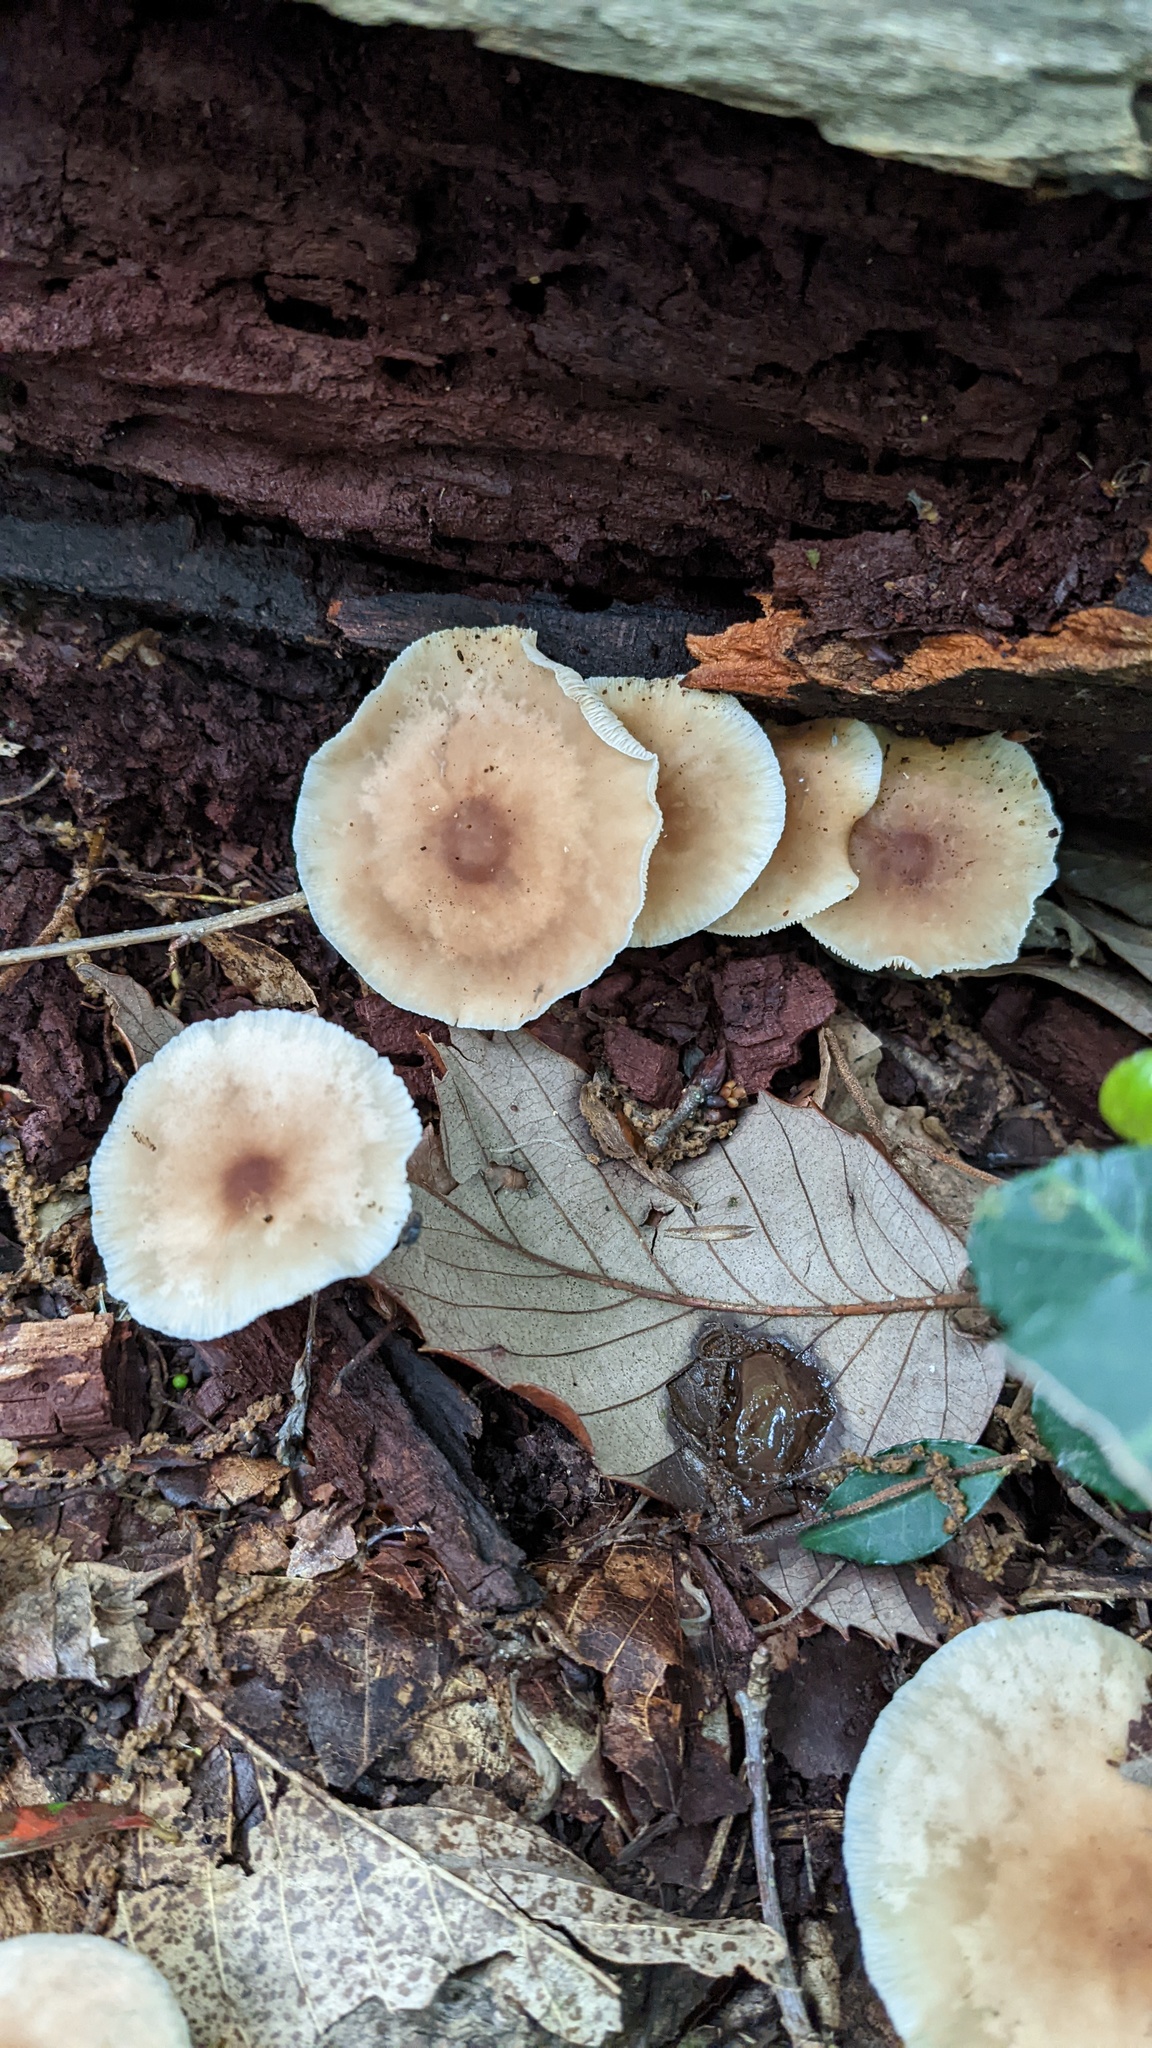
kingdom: Fungi
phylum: Basidiomycota
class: Agaricomycetes
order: Agaricales
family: Omphalotaceae
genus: Gymnopus
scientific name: Gymnopus dryophilus
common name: Penny top
